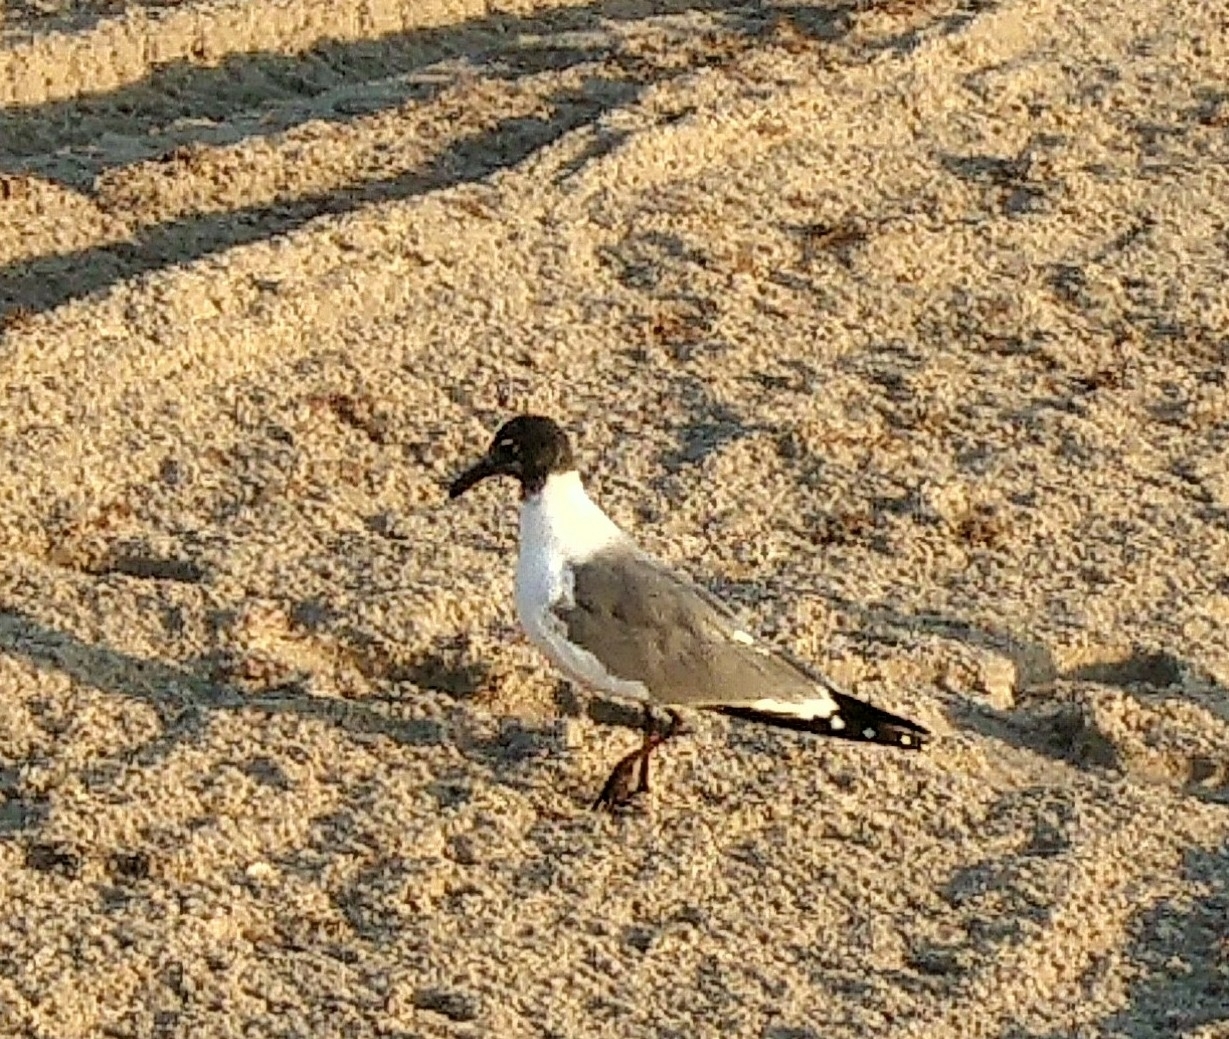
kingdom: Animalia
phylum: Chordata
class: Aves
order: Charadriiformes
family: Laridae
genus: Leucophaeus
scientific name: Leucophaeus atricilla
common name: Laughing gull
